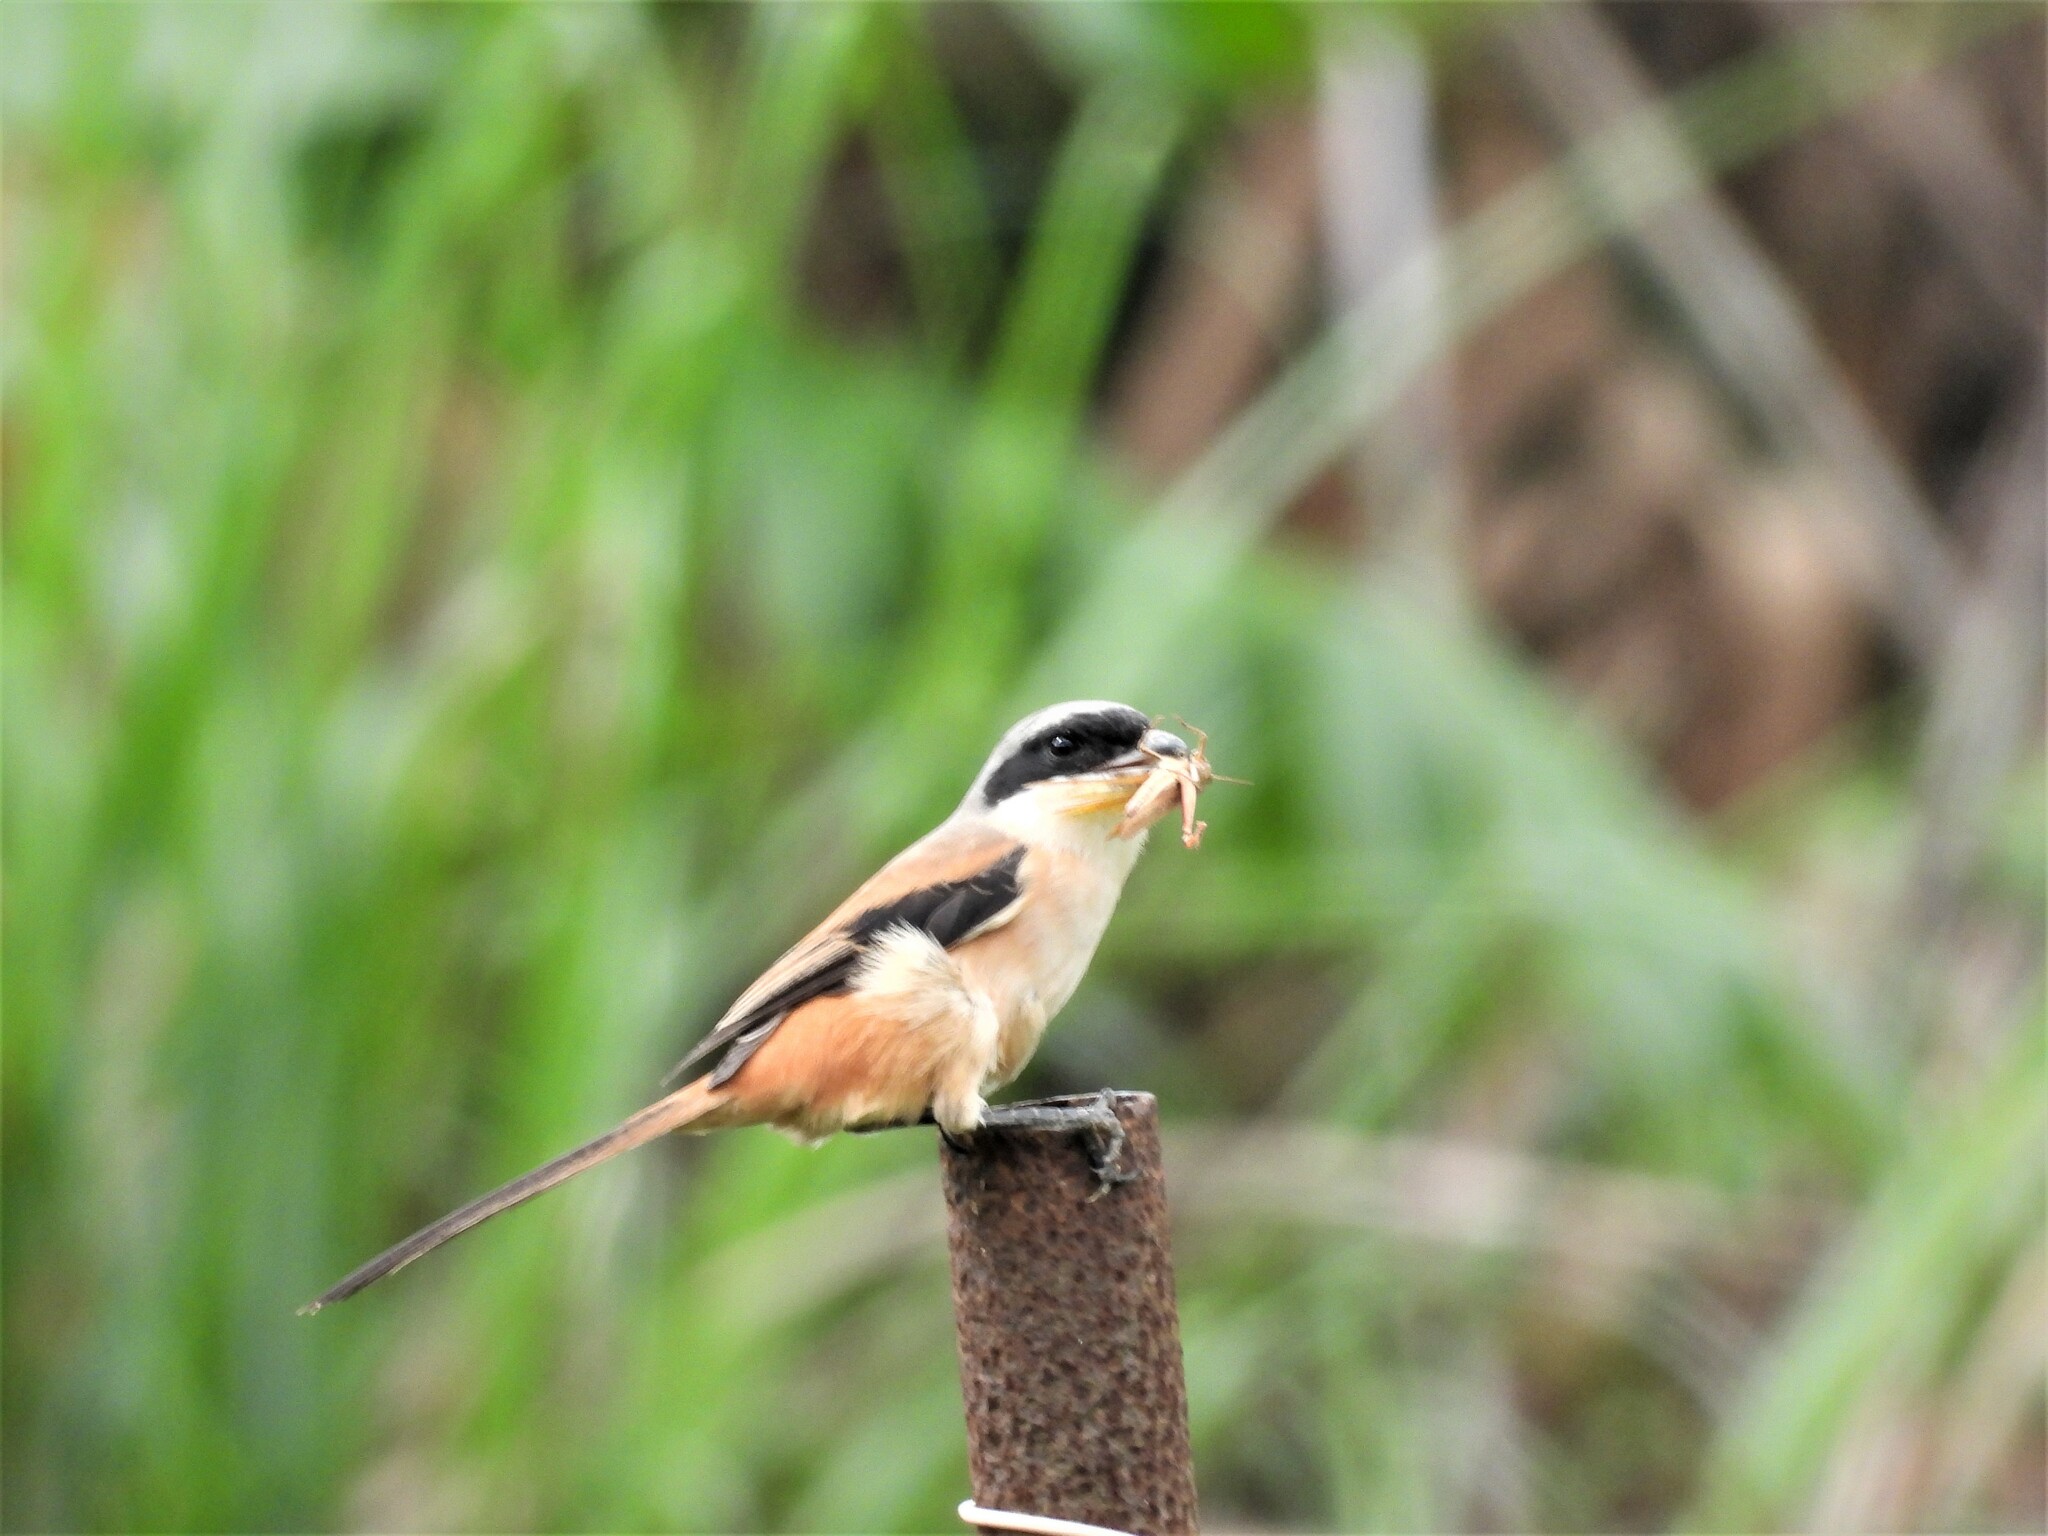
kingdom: Animalia
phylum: Chordata
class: Aves
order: Passeriformes
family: Laniidae
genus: Lanius
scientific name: Lanius schach
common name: Long-tailed shrike
